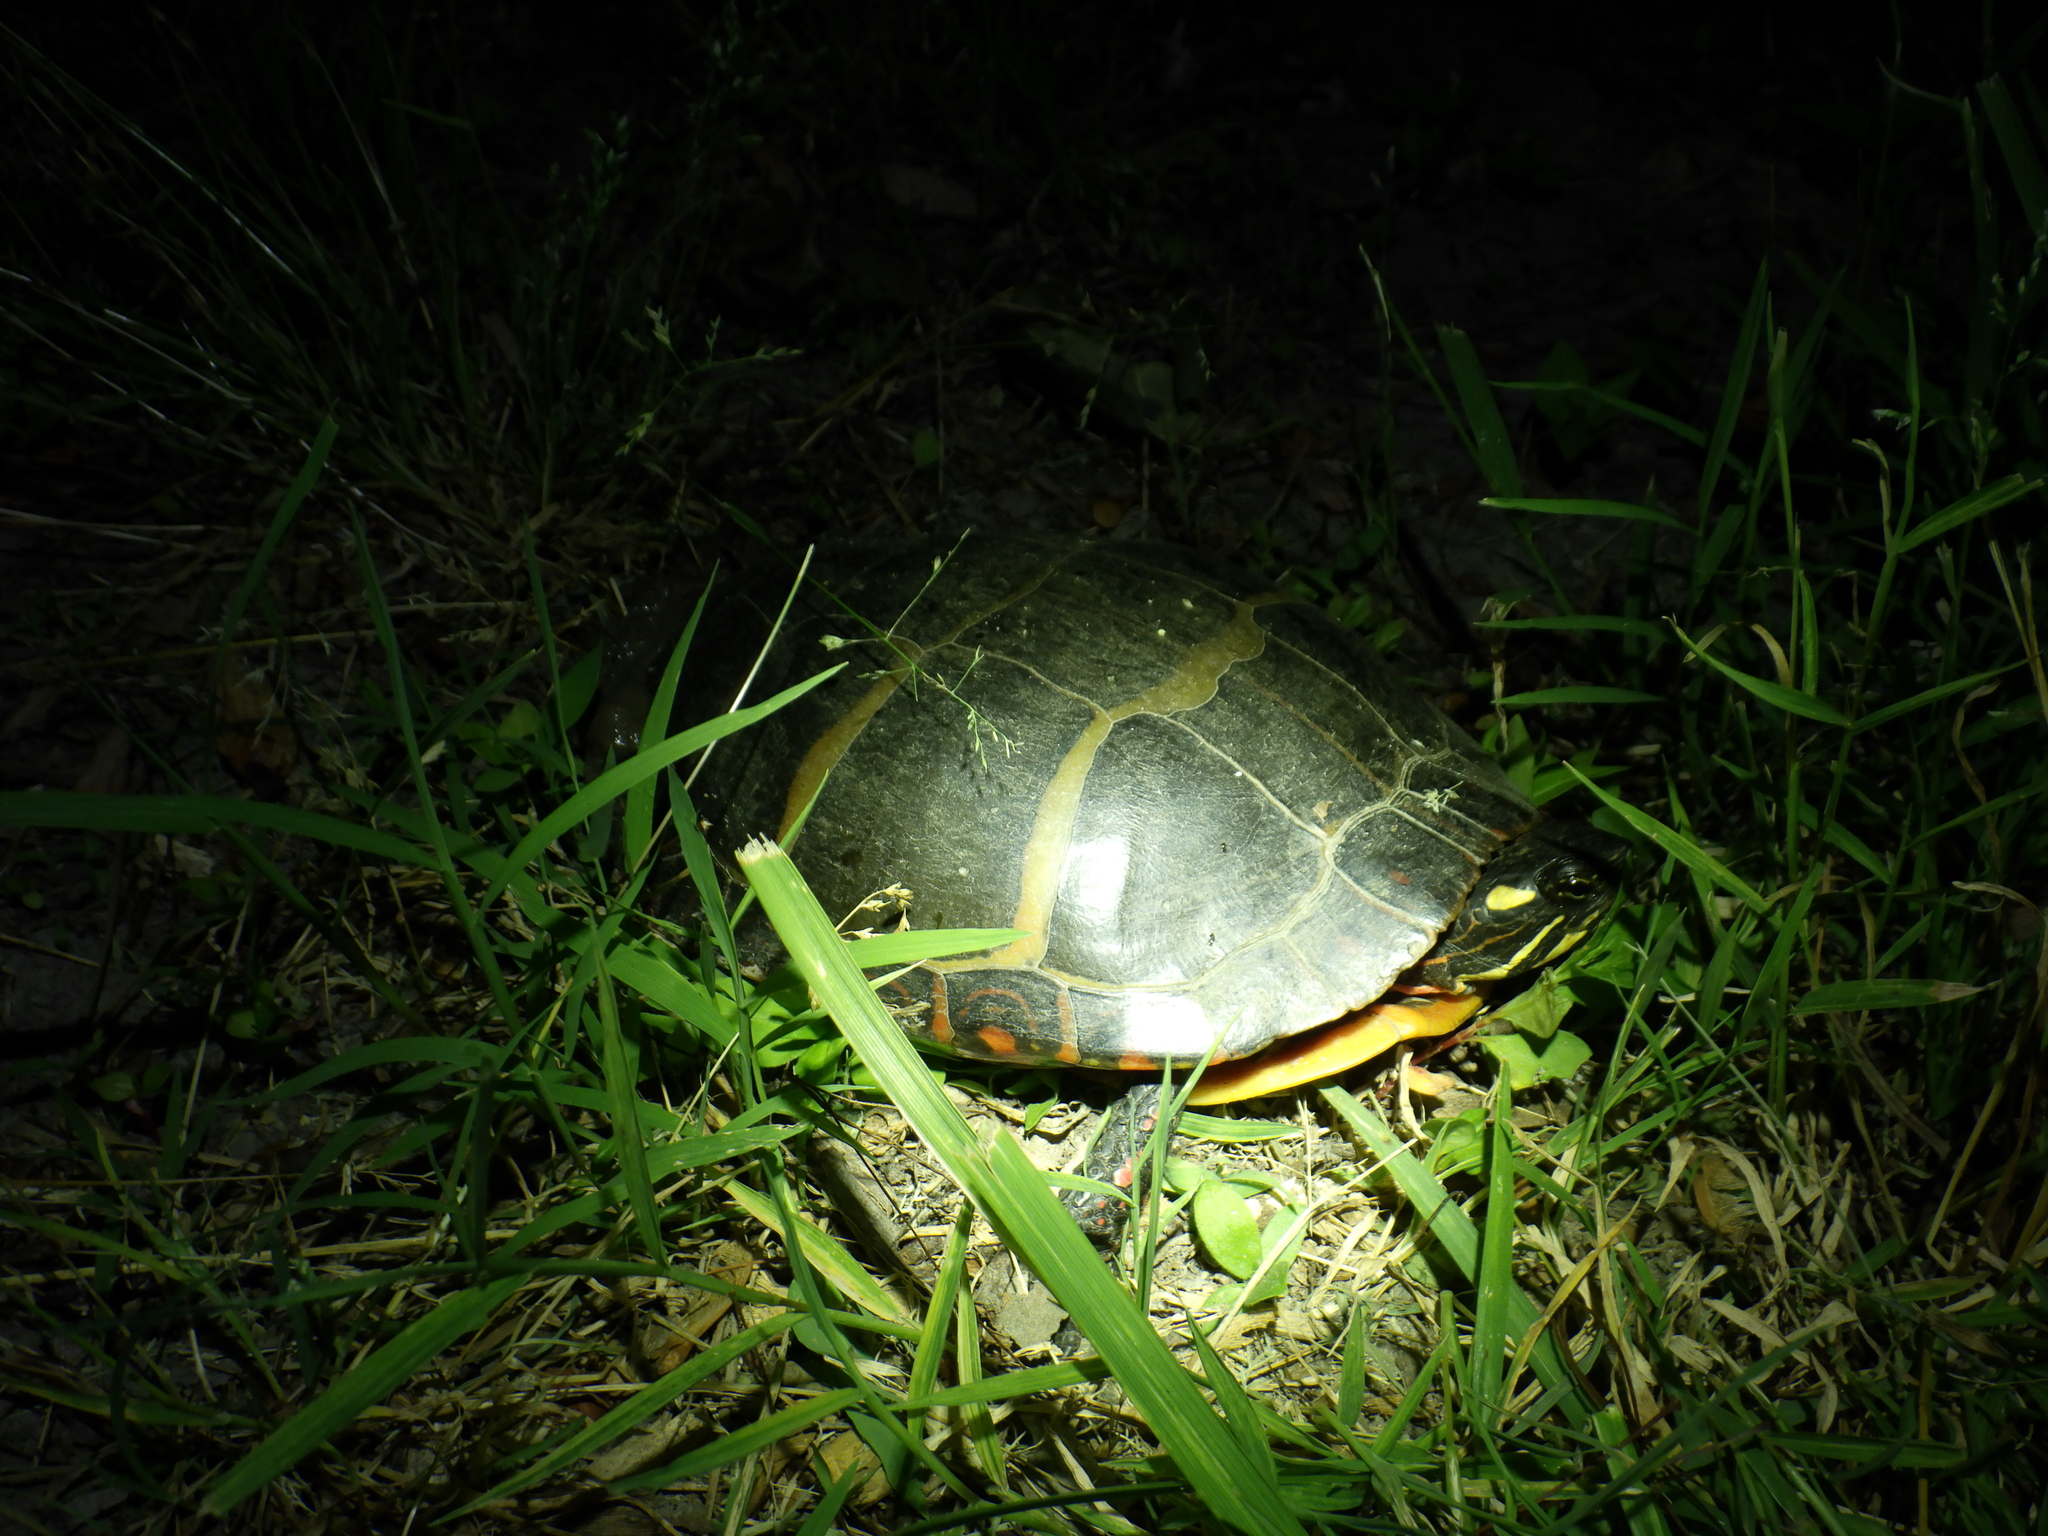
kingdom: Animalia
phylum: Chordata
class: Testudines
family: Emydidae
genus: Chrysemys
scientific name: Chrysemys picta
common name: Painted turtle
